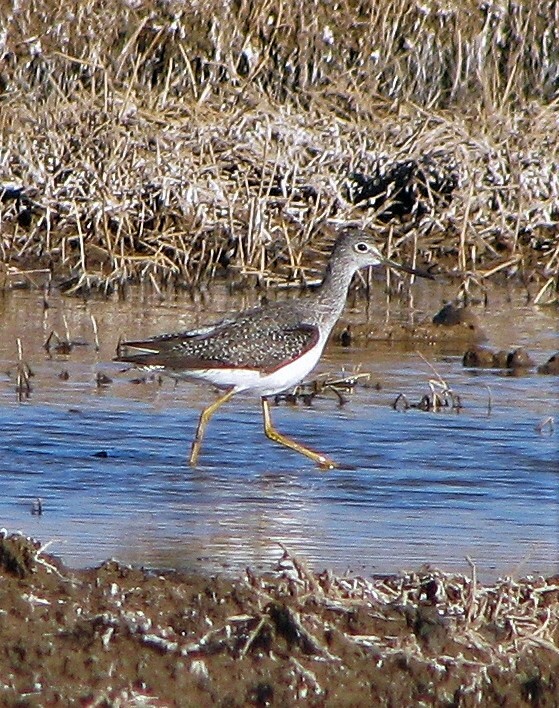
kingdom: Animalia
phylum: Chordata
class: Aves
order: Charadriiformes
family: Scolopacidae
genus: Tringa
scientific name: Tringa melanoleuca
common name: Greater yellowlegs
